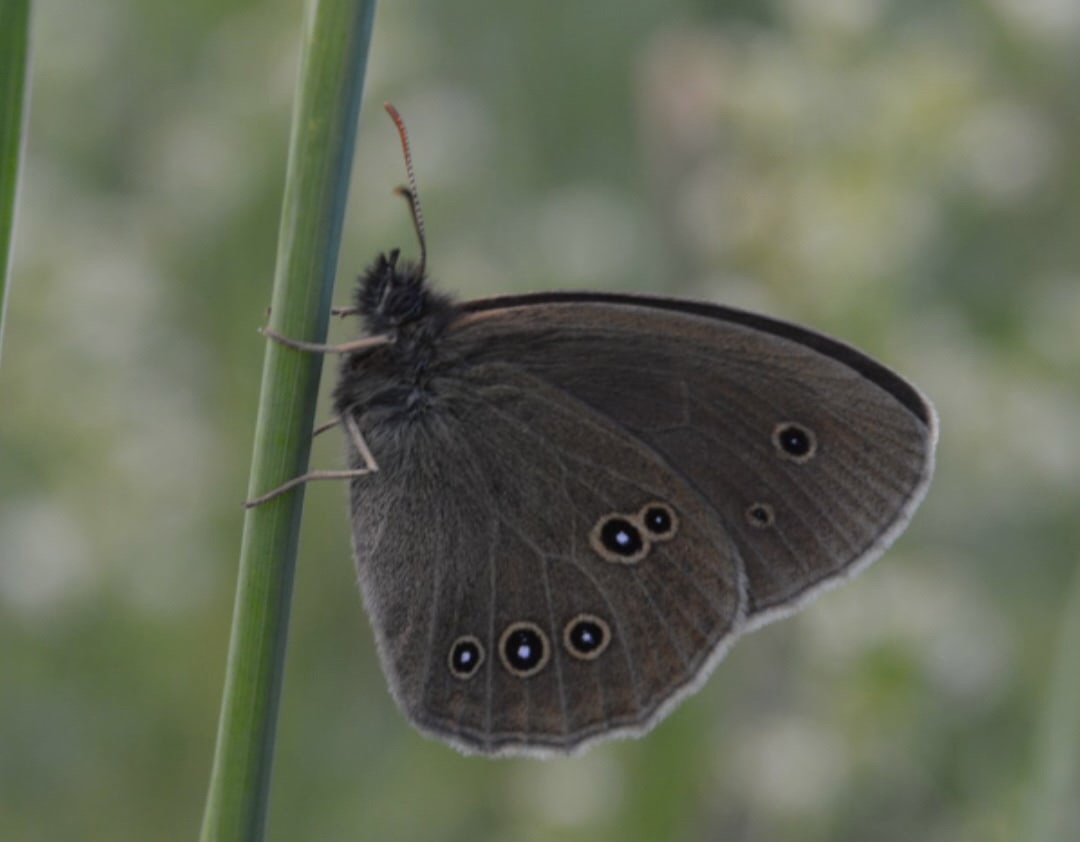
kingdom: Animalia
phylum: Arthropoda
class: Insecta
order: Lepidoptera
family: Nymphalidae
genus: Aphantopus
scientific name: Aphantopus hyperantus
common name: Ringlet
